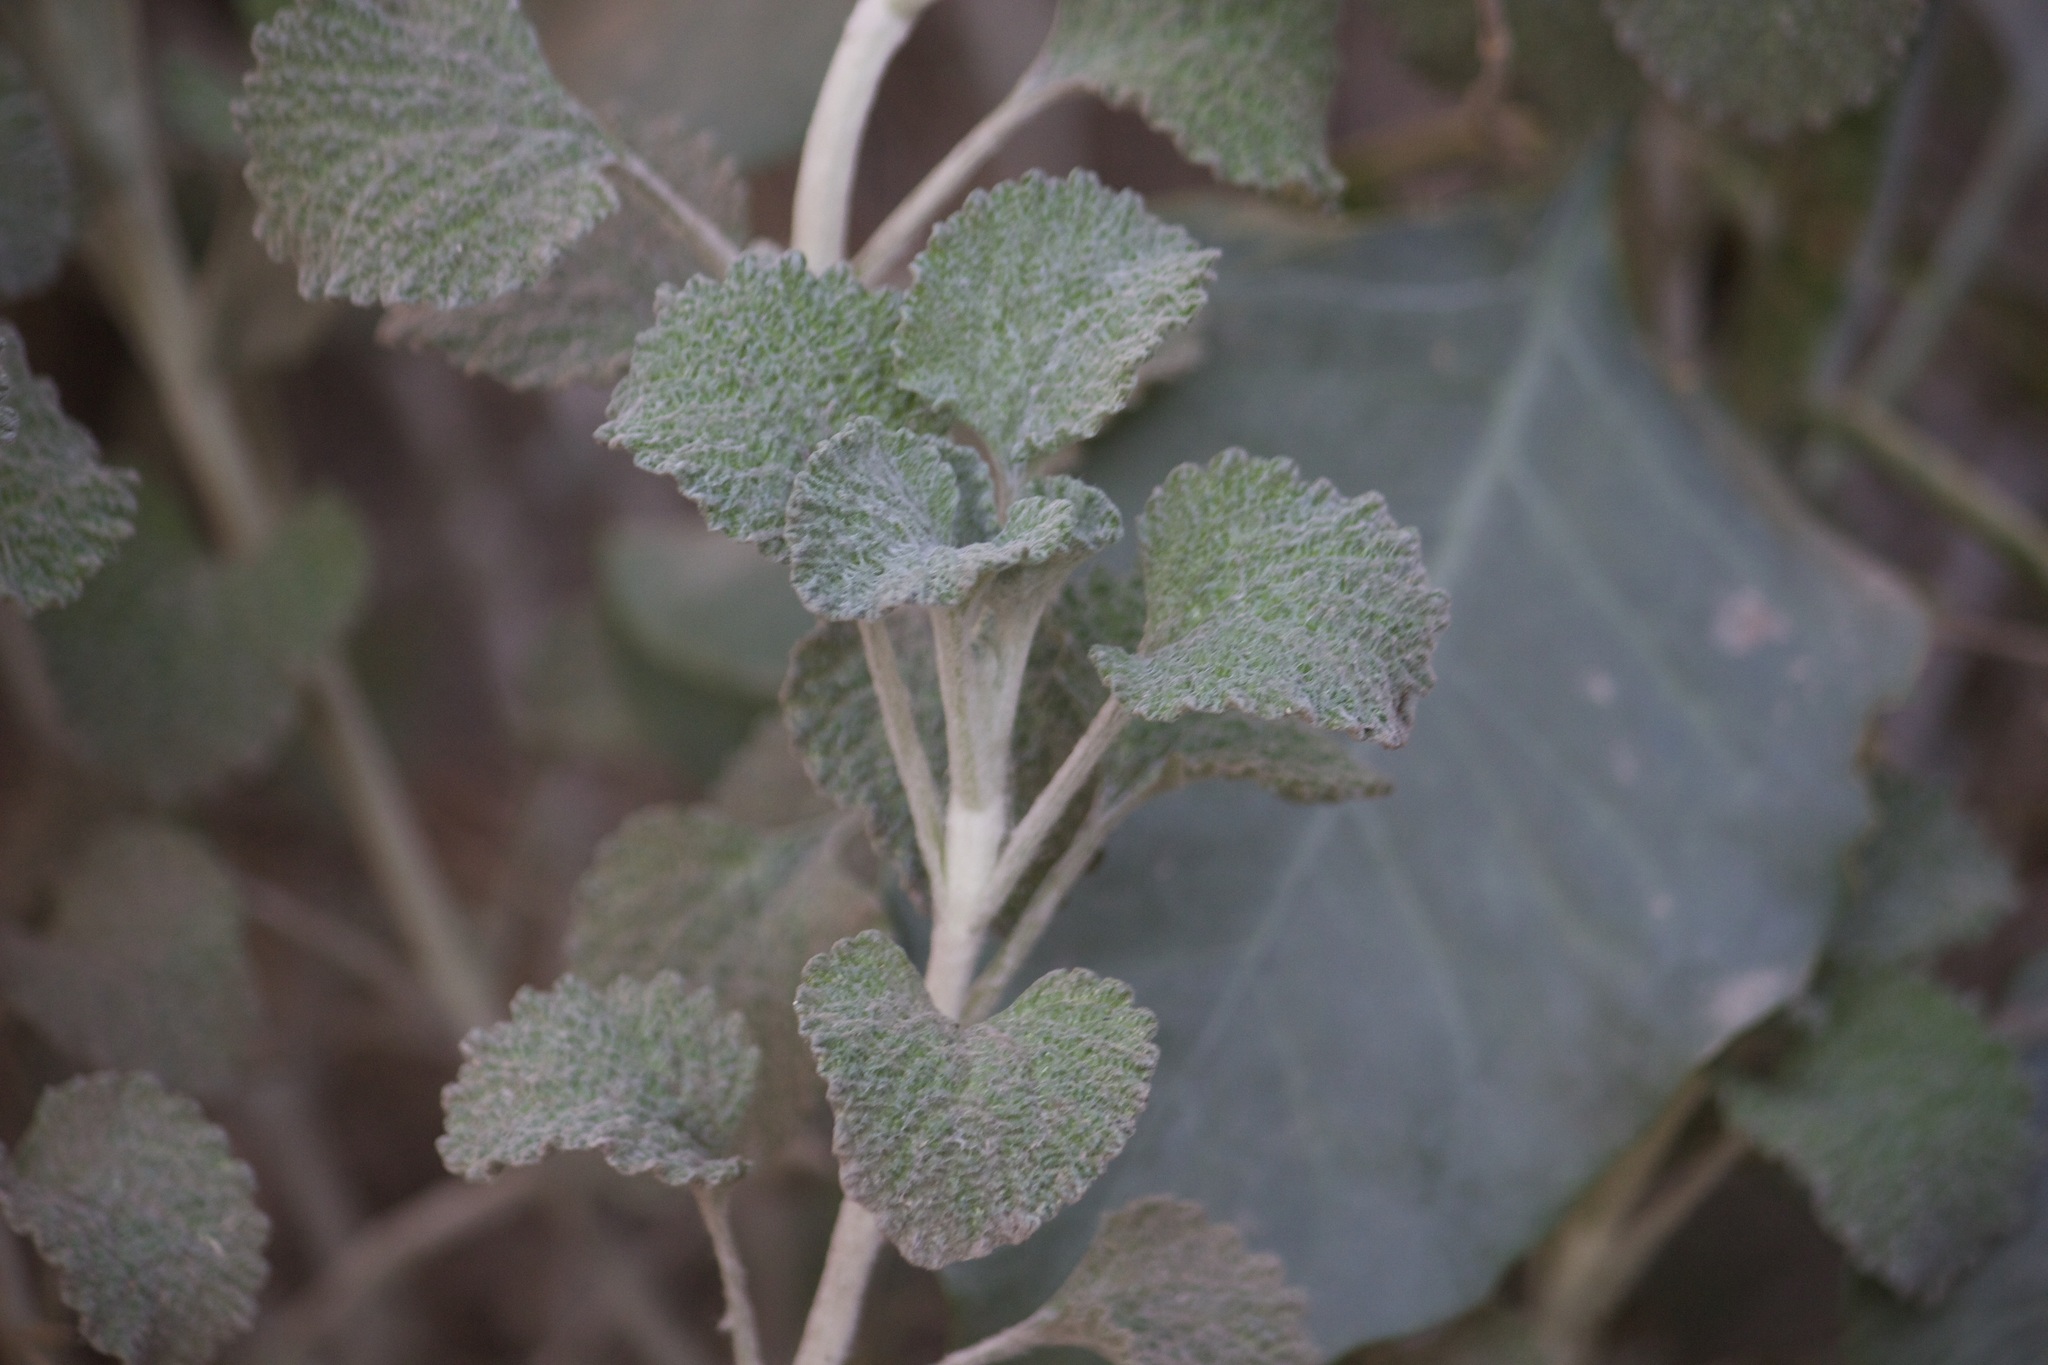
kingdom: Plantae
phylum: Tracheophyta
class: Magnoliopsida
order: Lamiales
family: Lamiaceae
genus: Marrubium
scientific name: Marrubium vulgare
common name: Horehound
